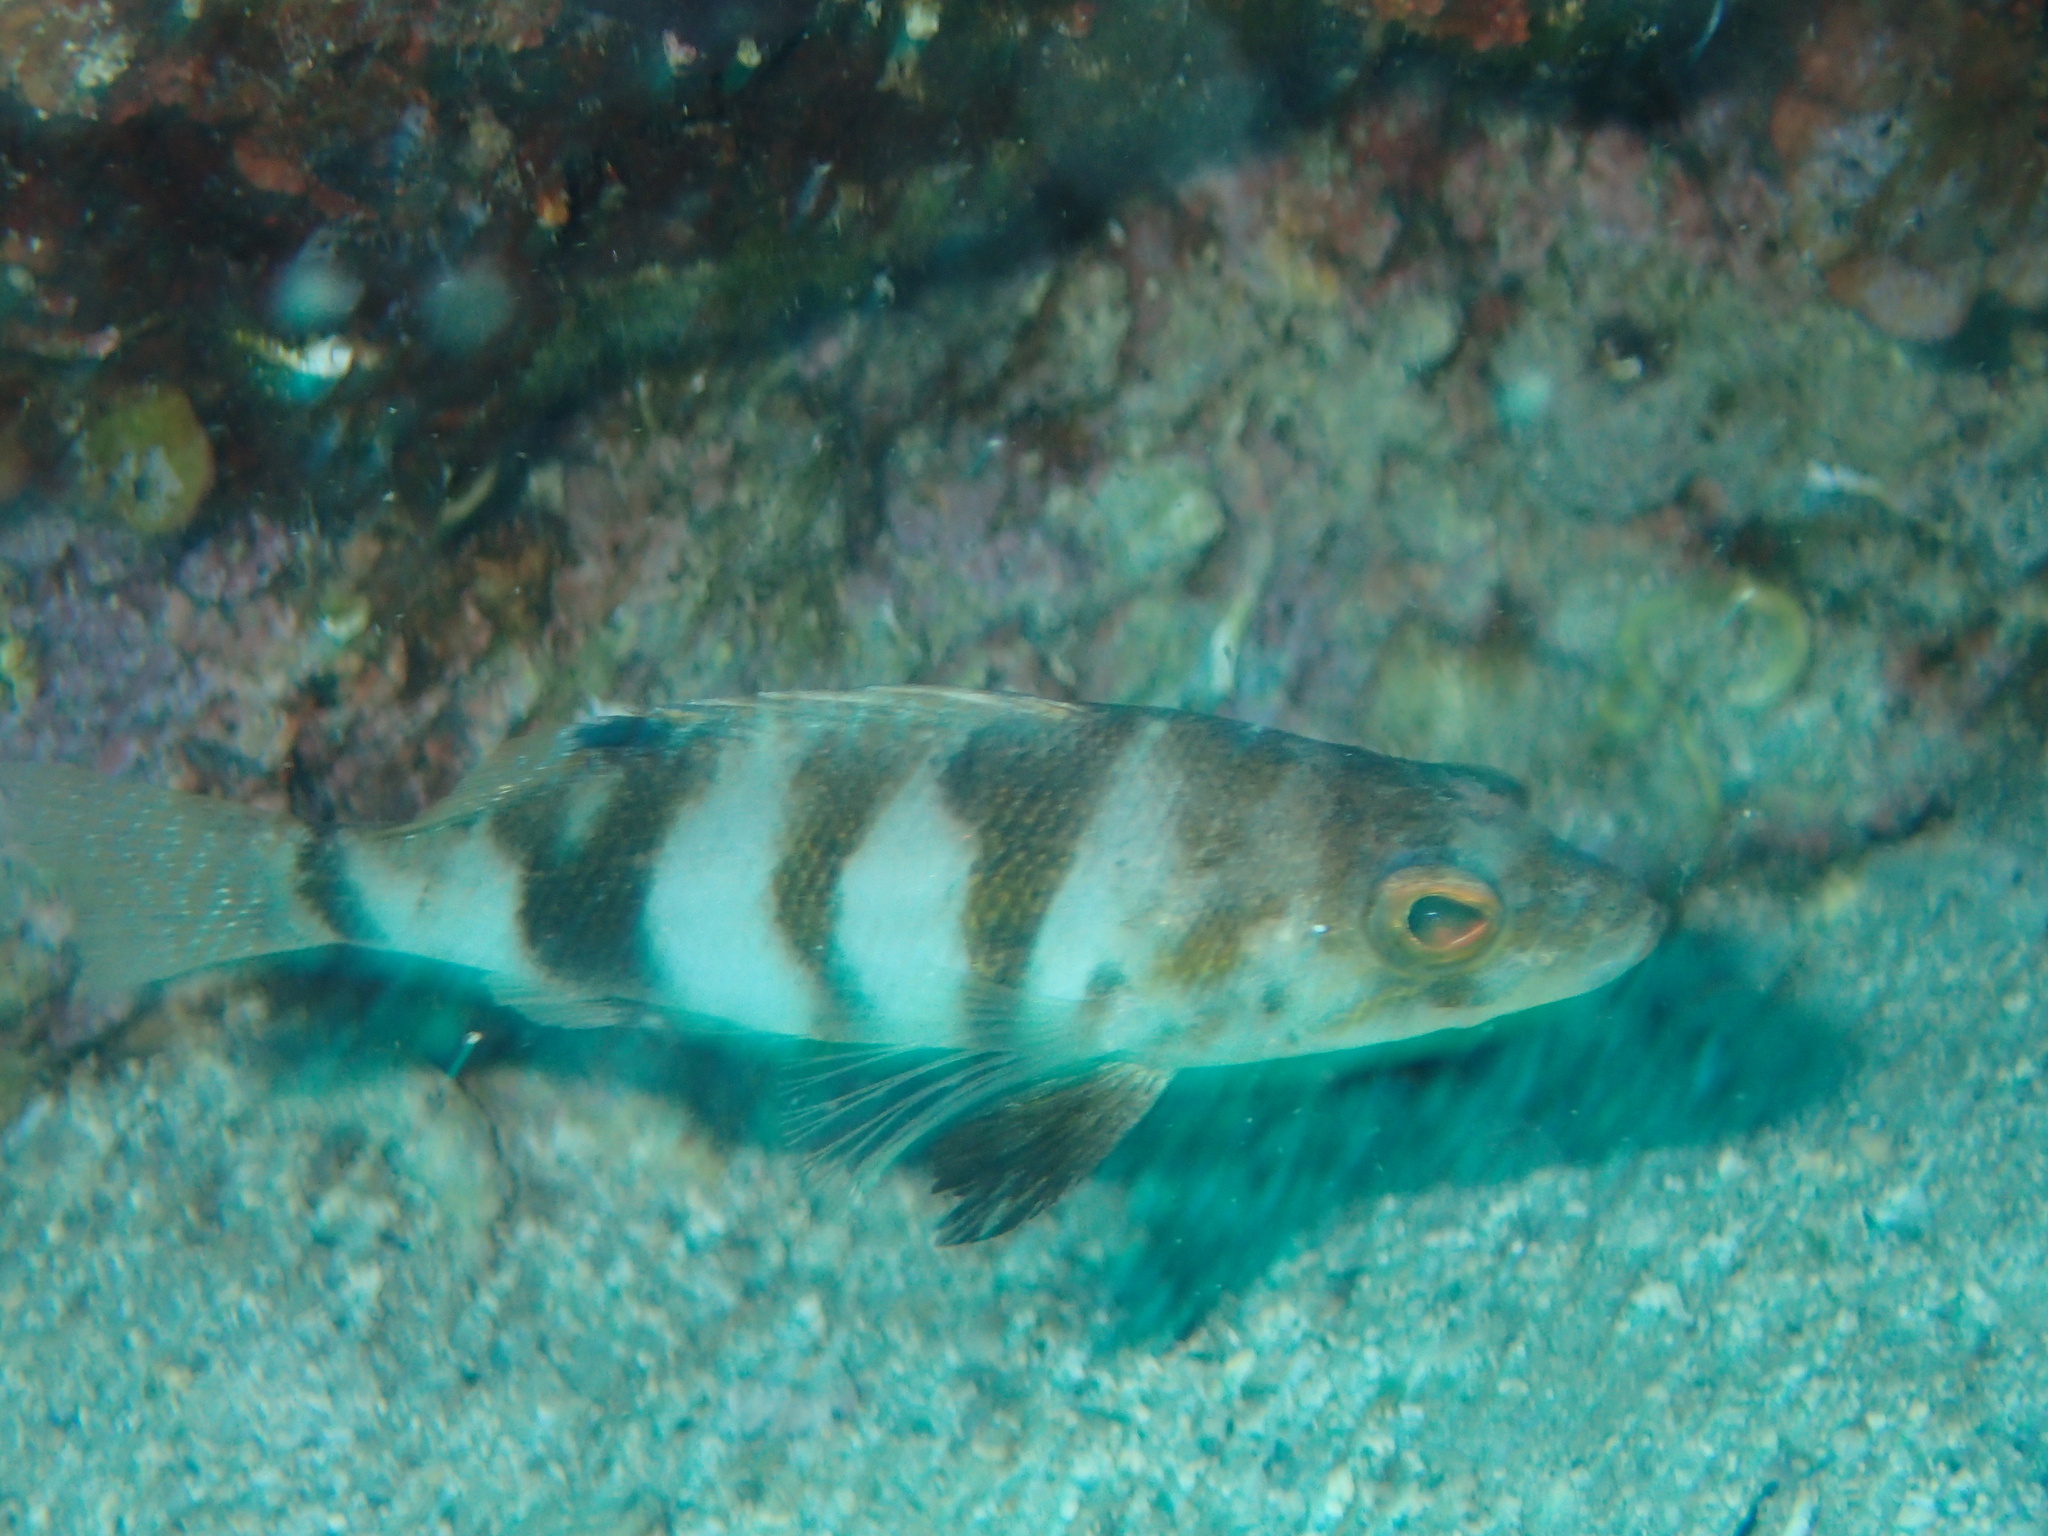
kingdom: Animalia
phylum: Chordata
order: Perciformes
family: Serranidae
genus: Serranus
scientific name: Serranus hepatus
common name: Brown comber
